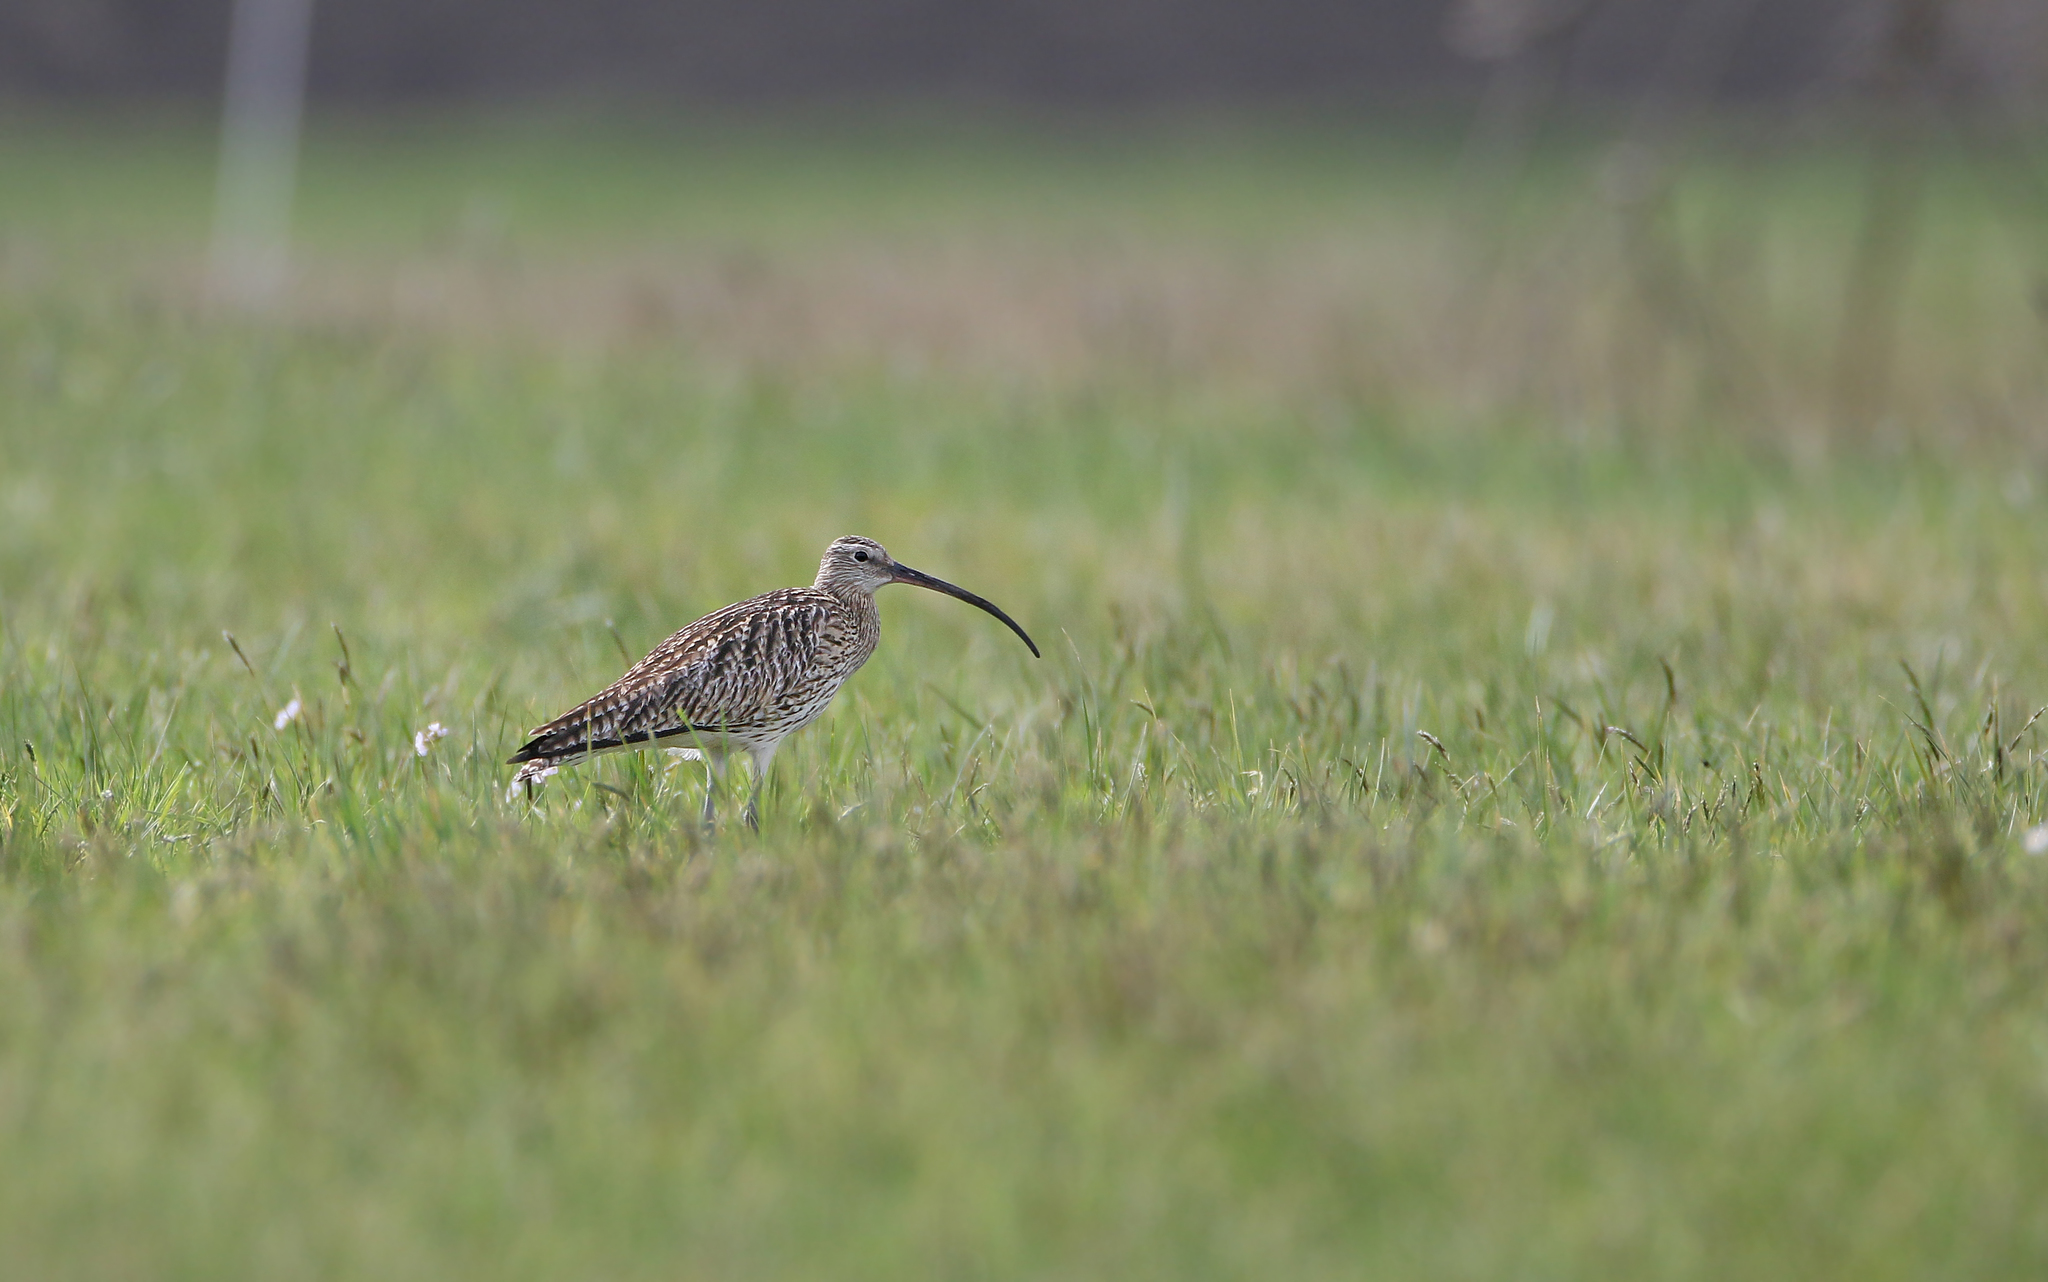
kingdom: Animalia
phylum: Chordata
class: Aves
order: Charadriiformes
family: Scolopacidae
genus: Numenius
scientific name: Numenius arquata
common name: Eurasian curlew
